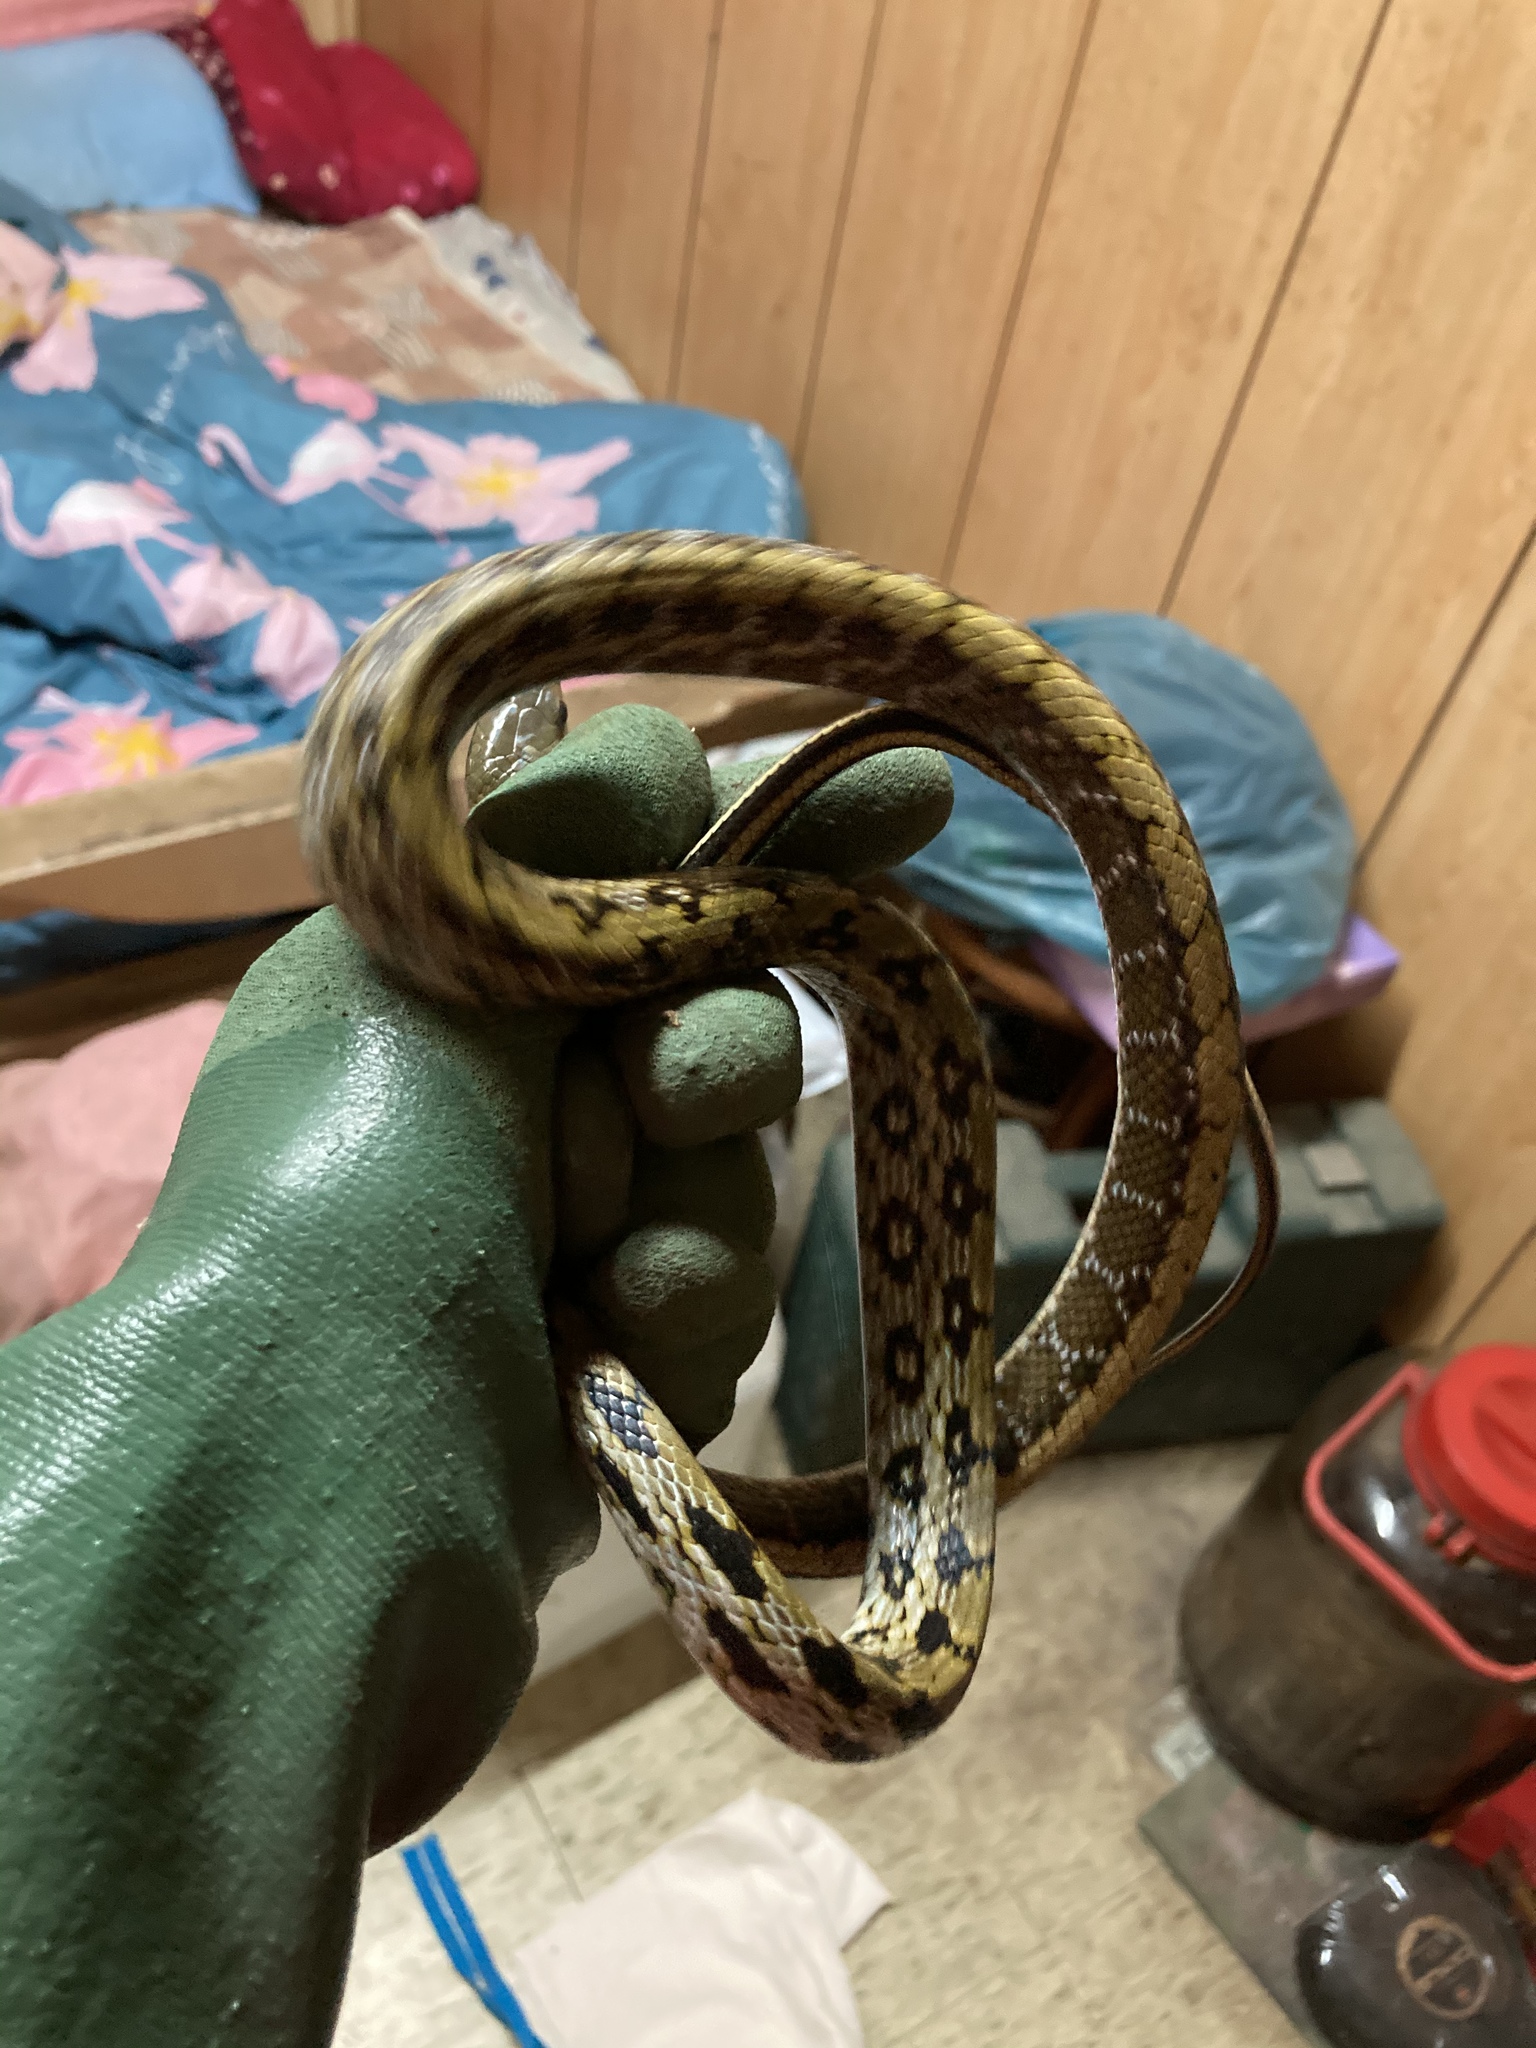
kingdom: Animalia
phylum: Chordata
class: Squamata
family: Colubridae
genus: Elaphe
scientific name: Elaphe taeniura
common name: Beauty snake
